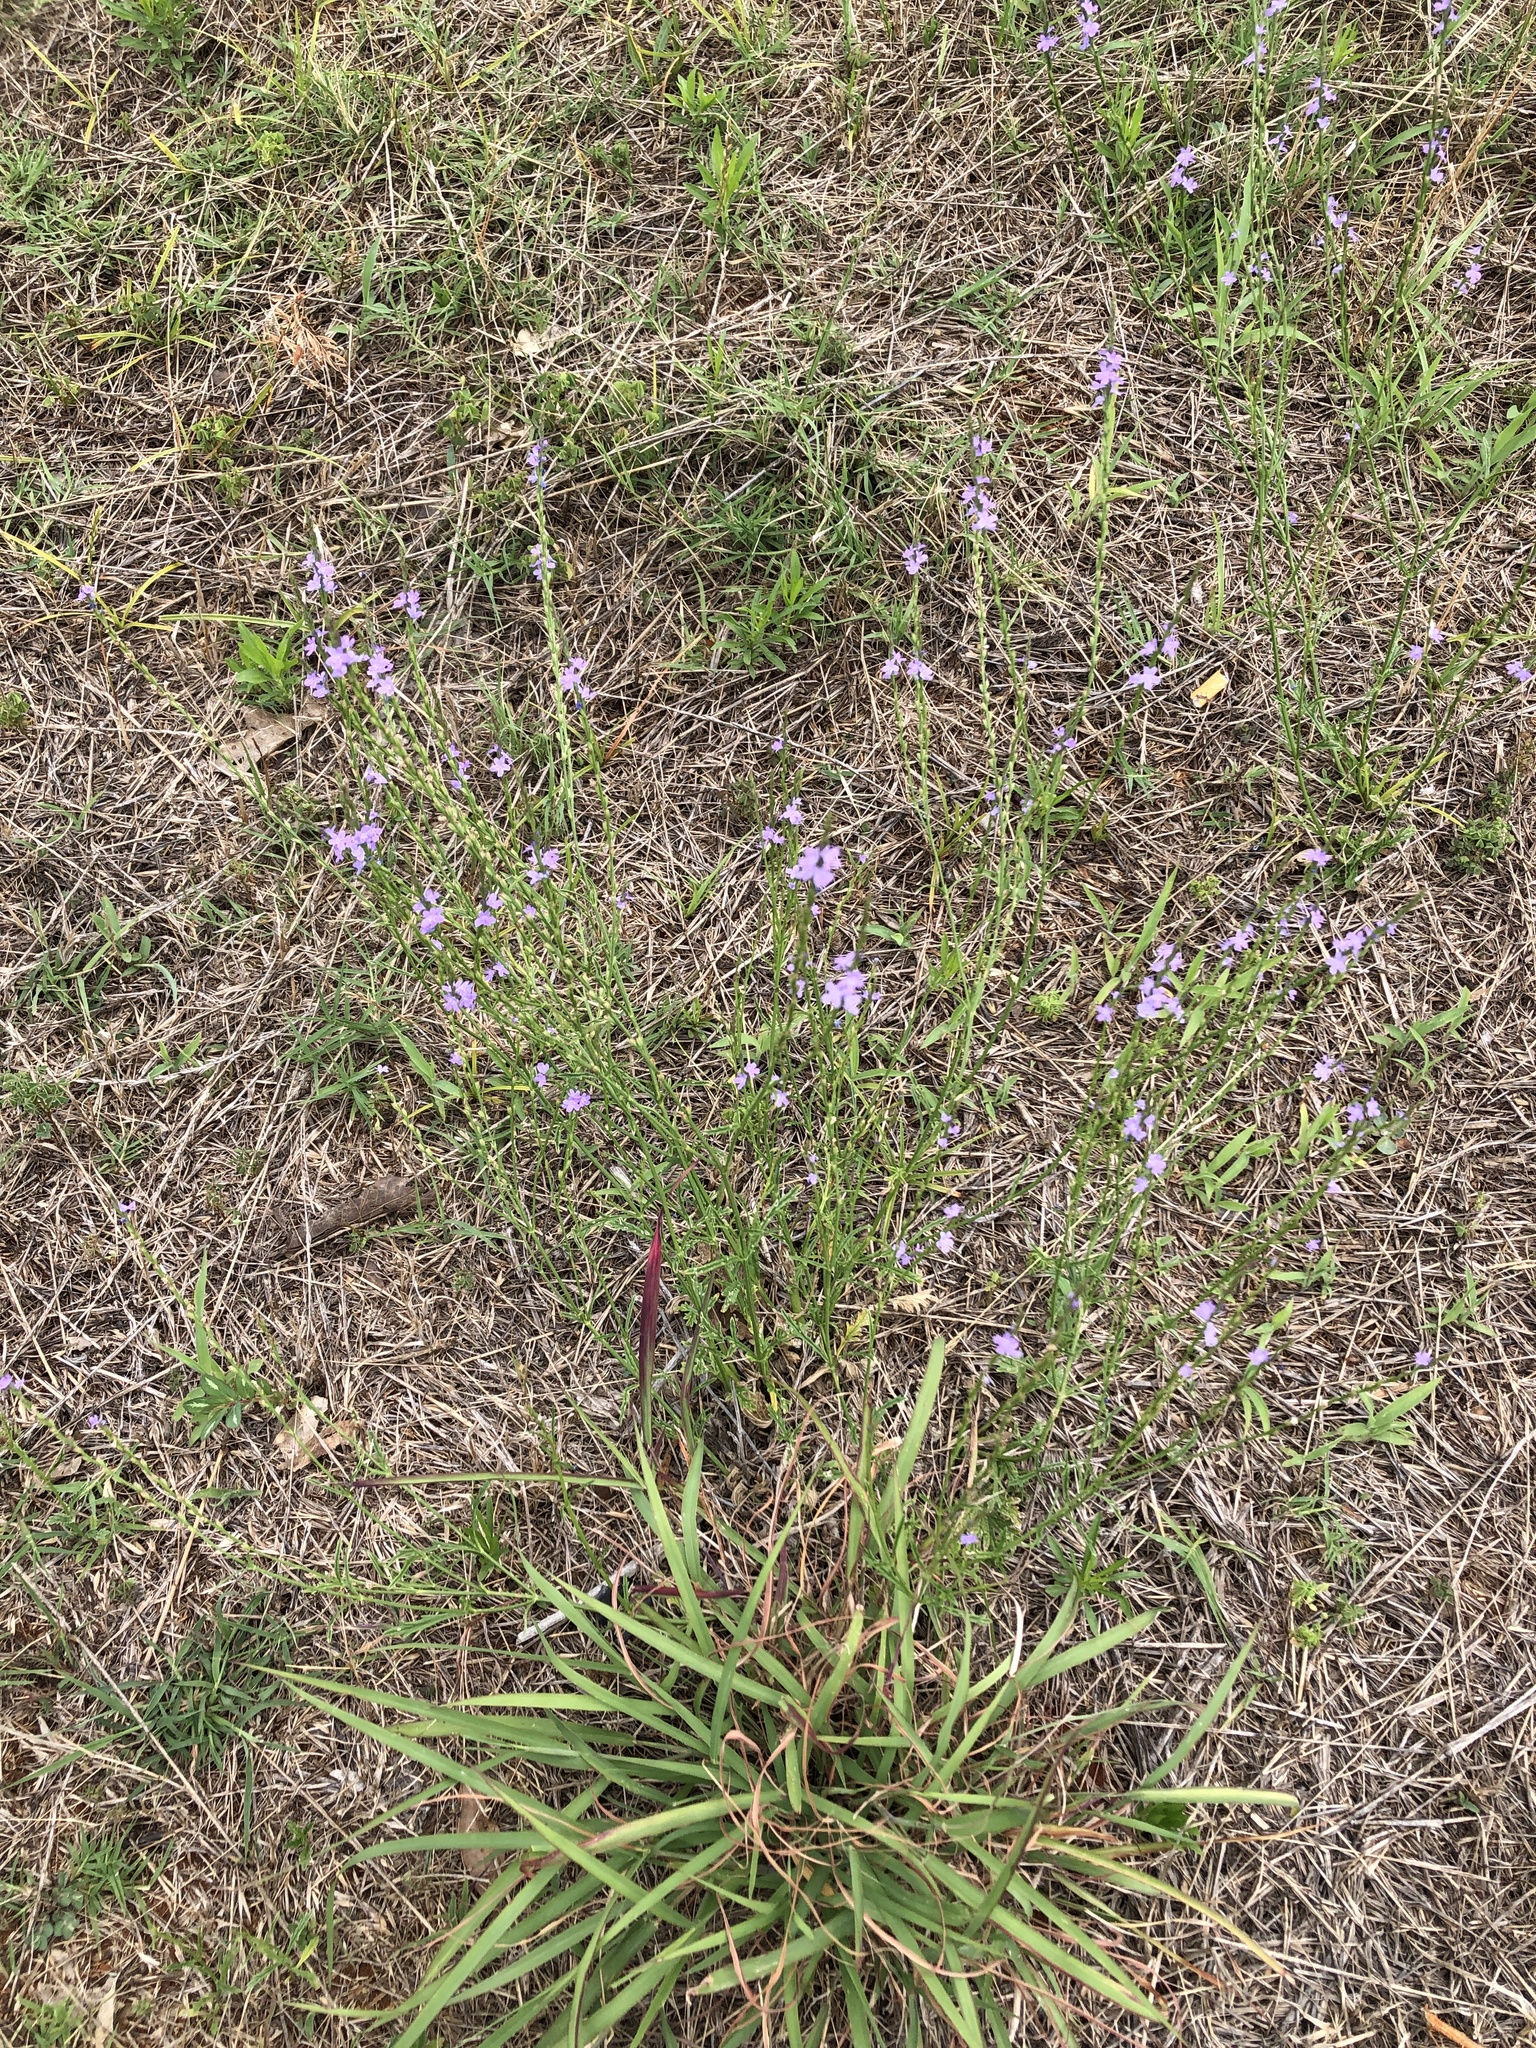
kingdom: Plantae
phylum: Tracheophyta
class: Magnoliopsida
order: Lamiales
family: Verbenaceae
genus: Verbena
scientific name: Verbena halei
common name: Texas vervain
